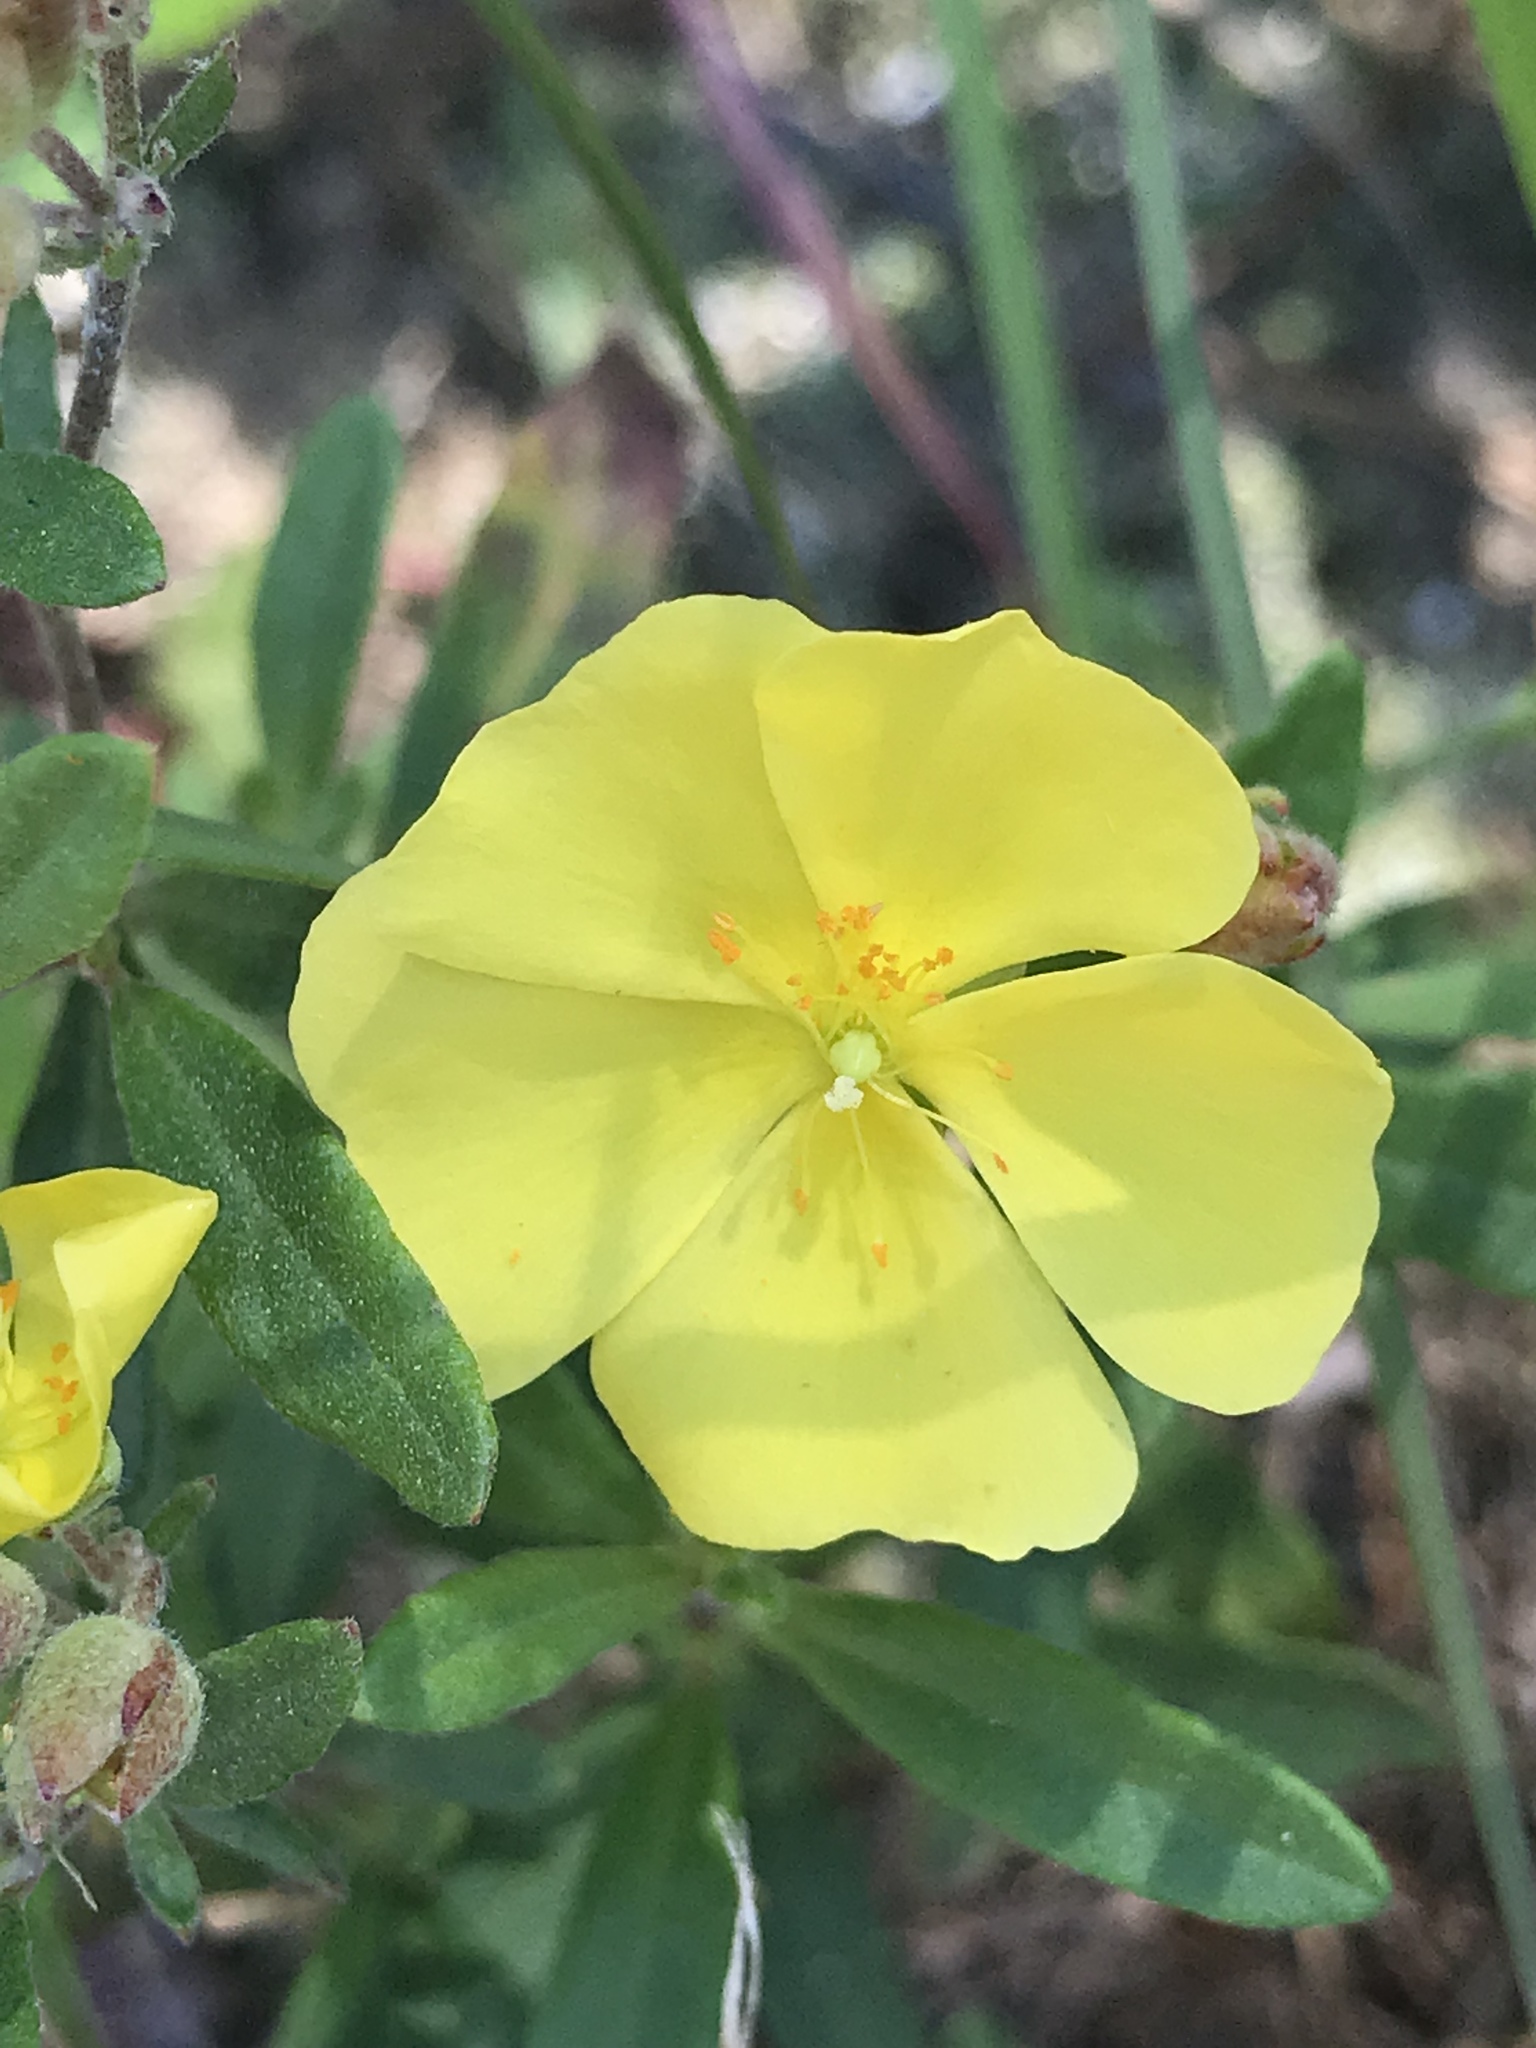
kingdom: Plantae
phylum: Tracheophyta
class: Magnoliopsida
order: Malvales
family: Cistaceae
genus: Crocanthemum
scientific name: Crocanthemum canadense
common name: Canada frostweed
